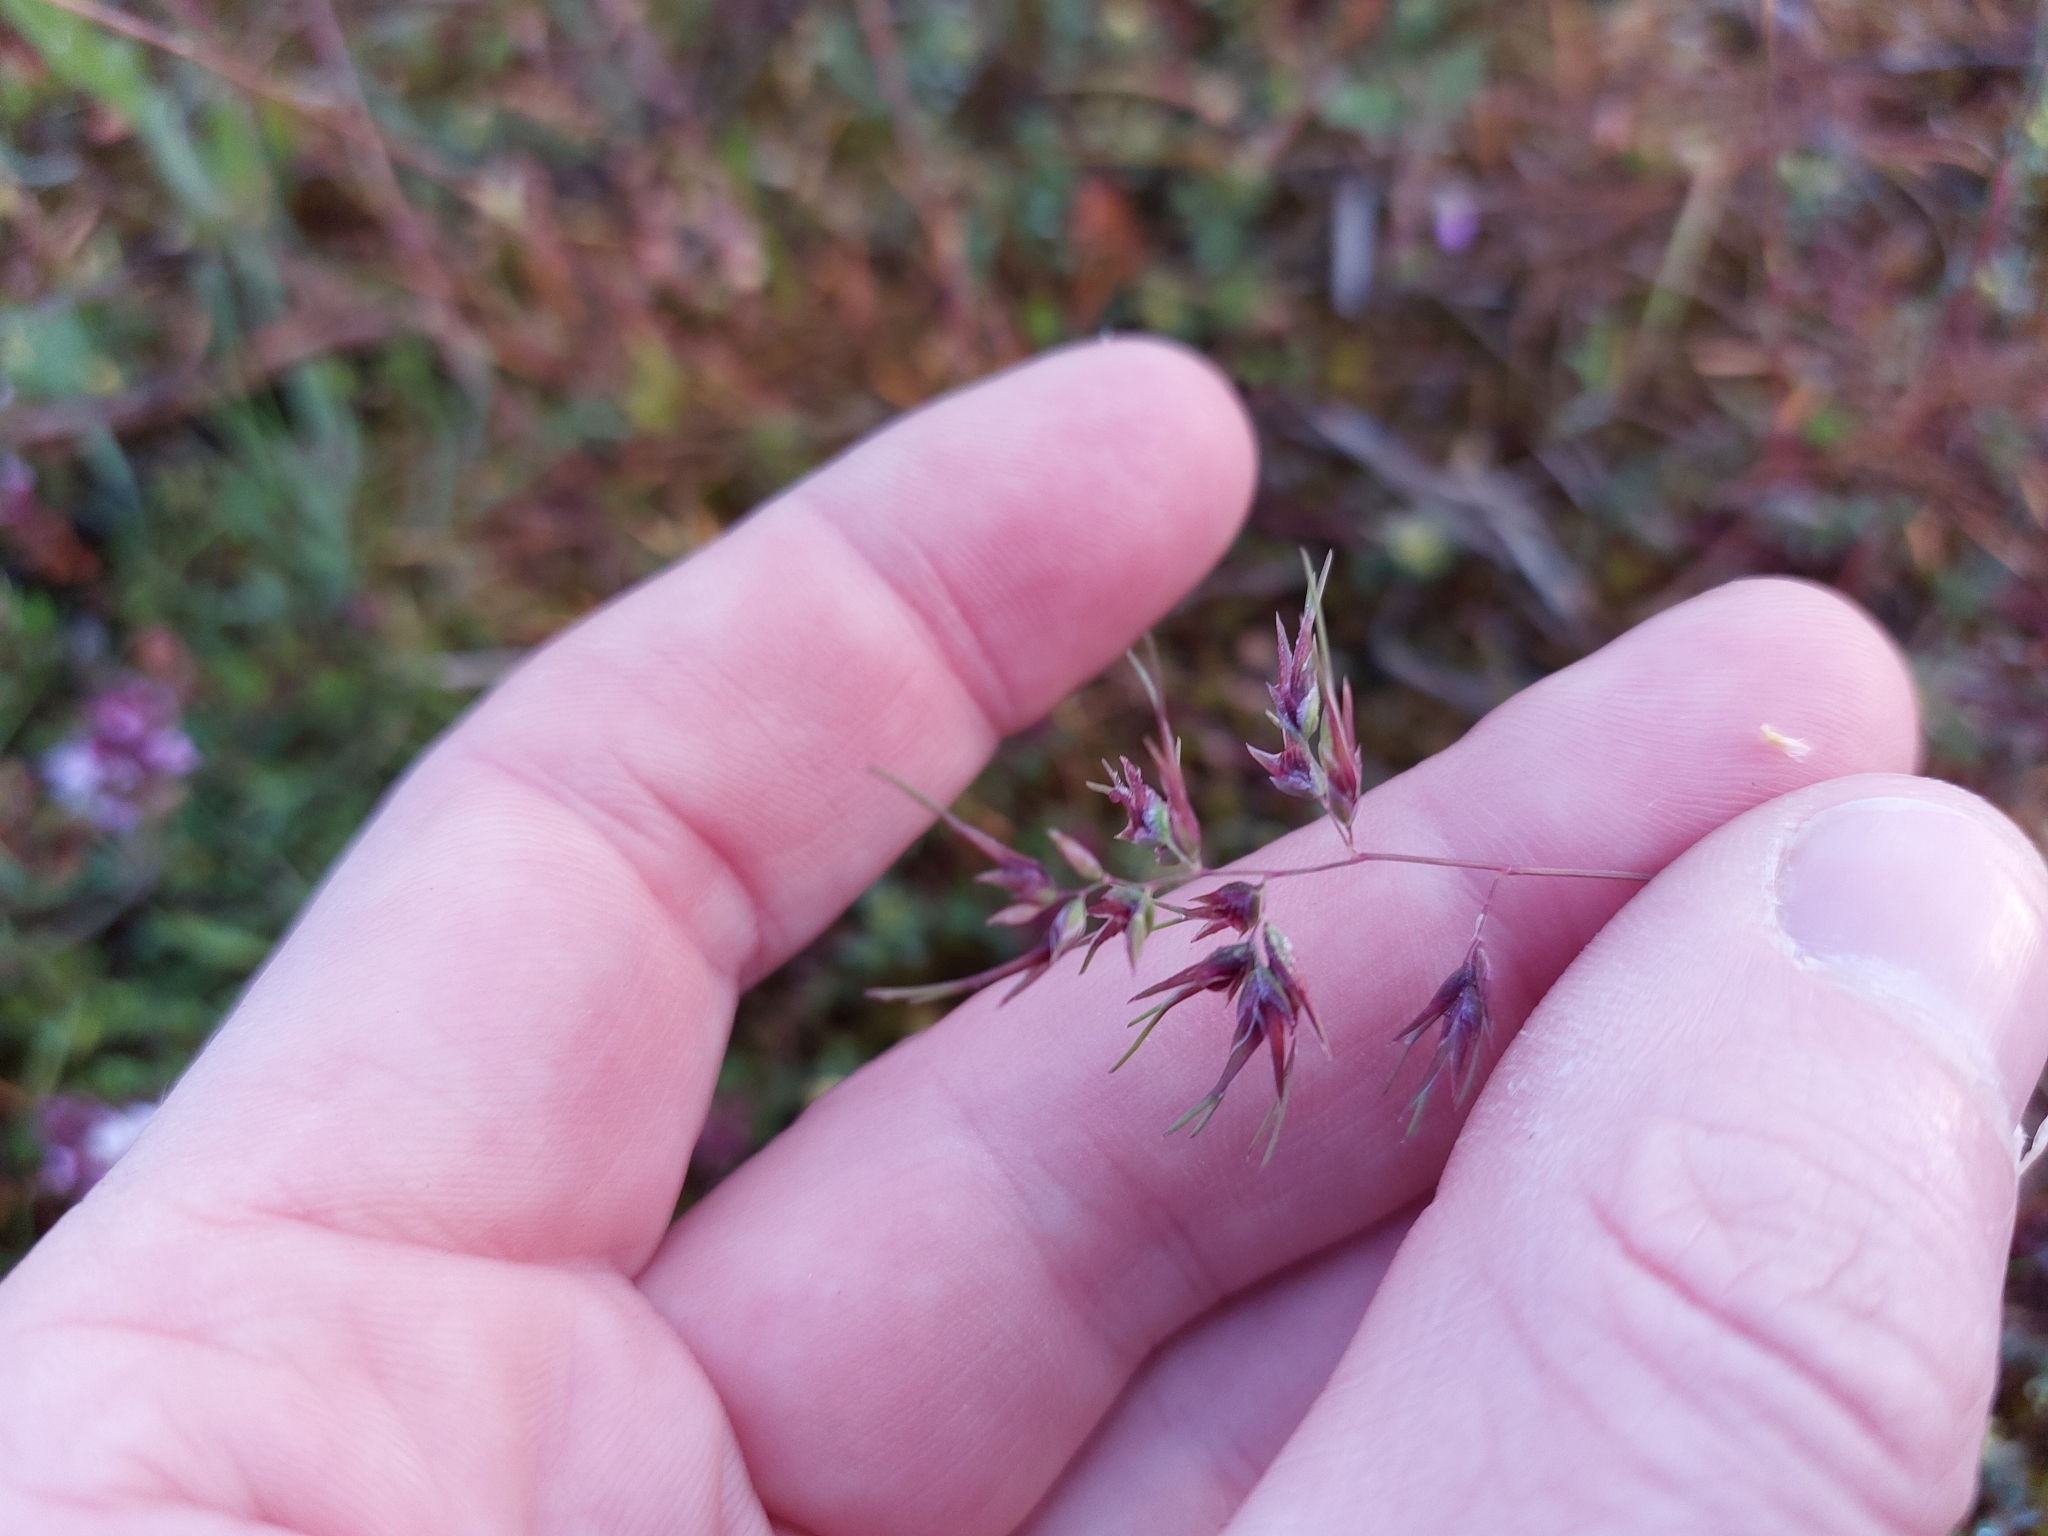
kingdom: Plantae
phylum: Tracheophyta
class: Liliopsida
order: Poales
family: Poaceae
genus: Poa
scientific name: Poa bulbosa
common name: Bulbous bluegrass
